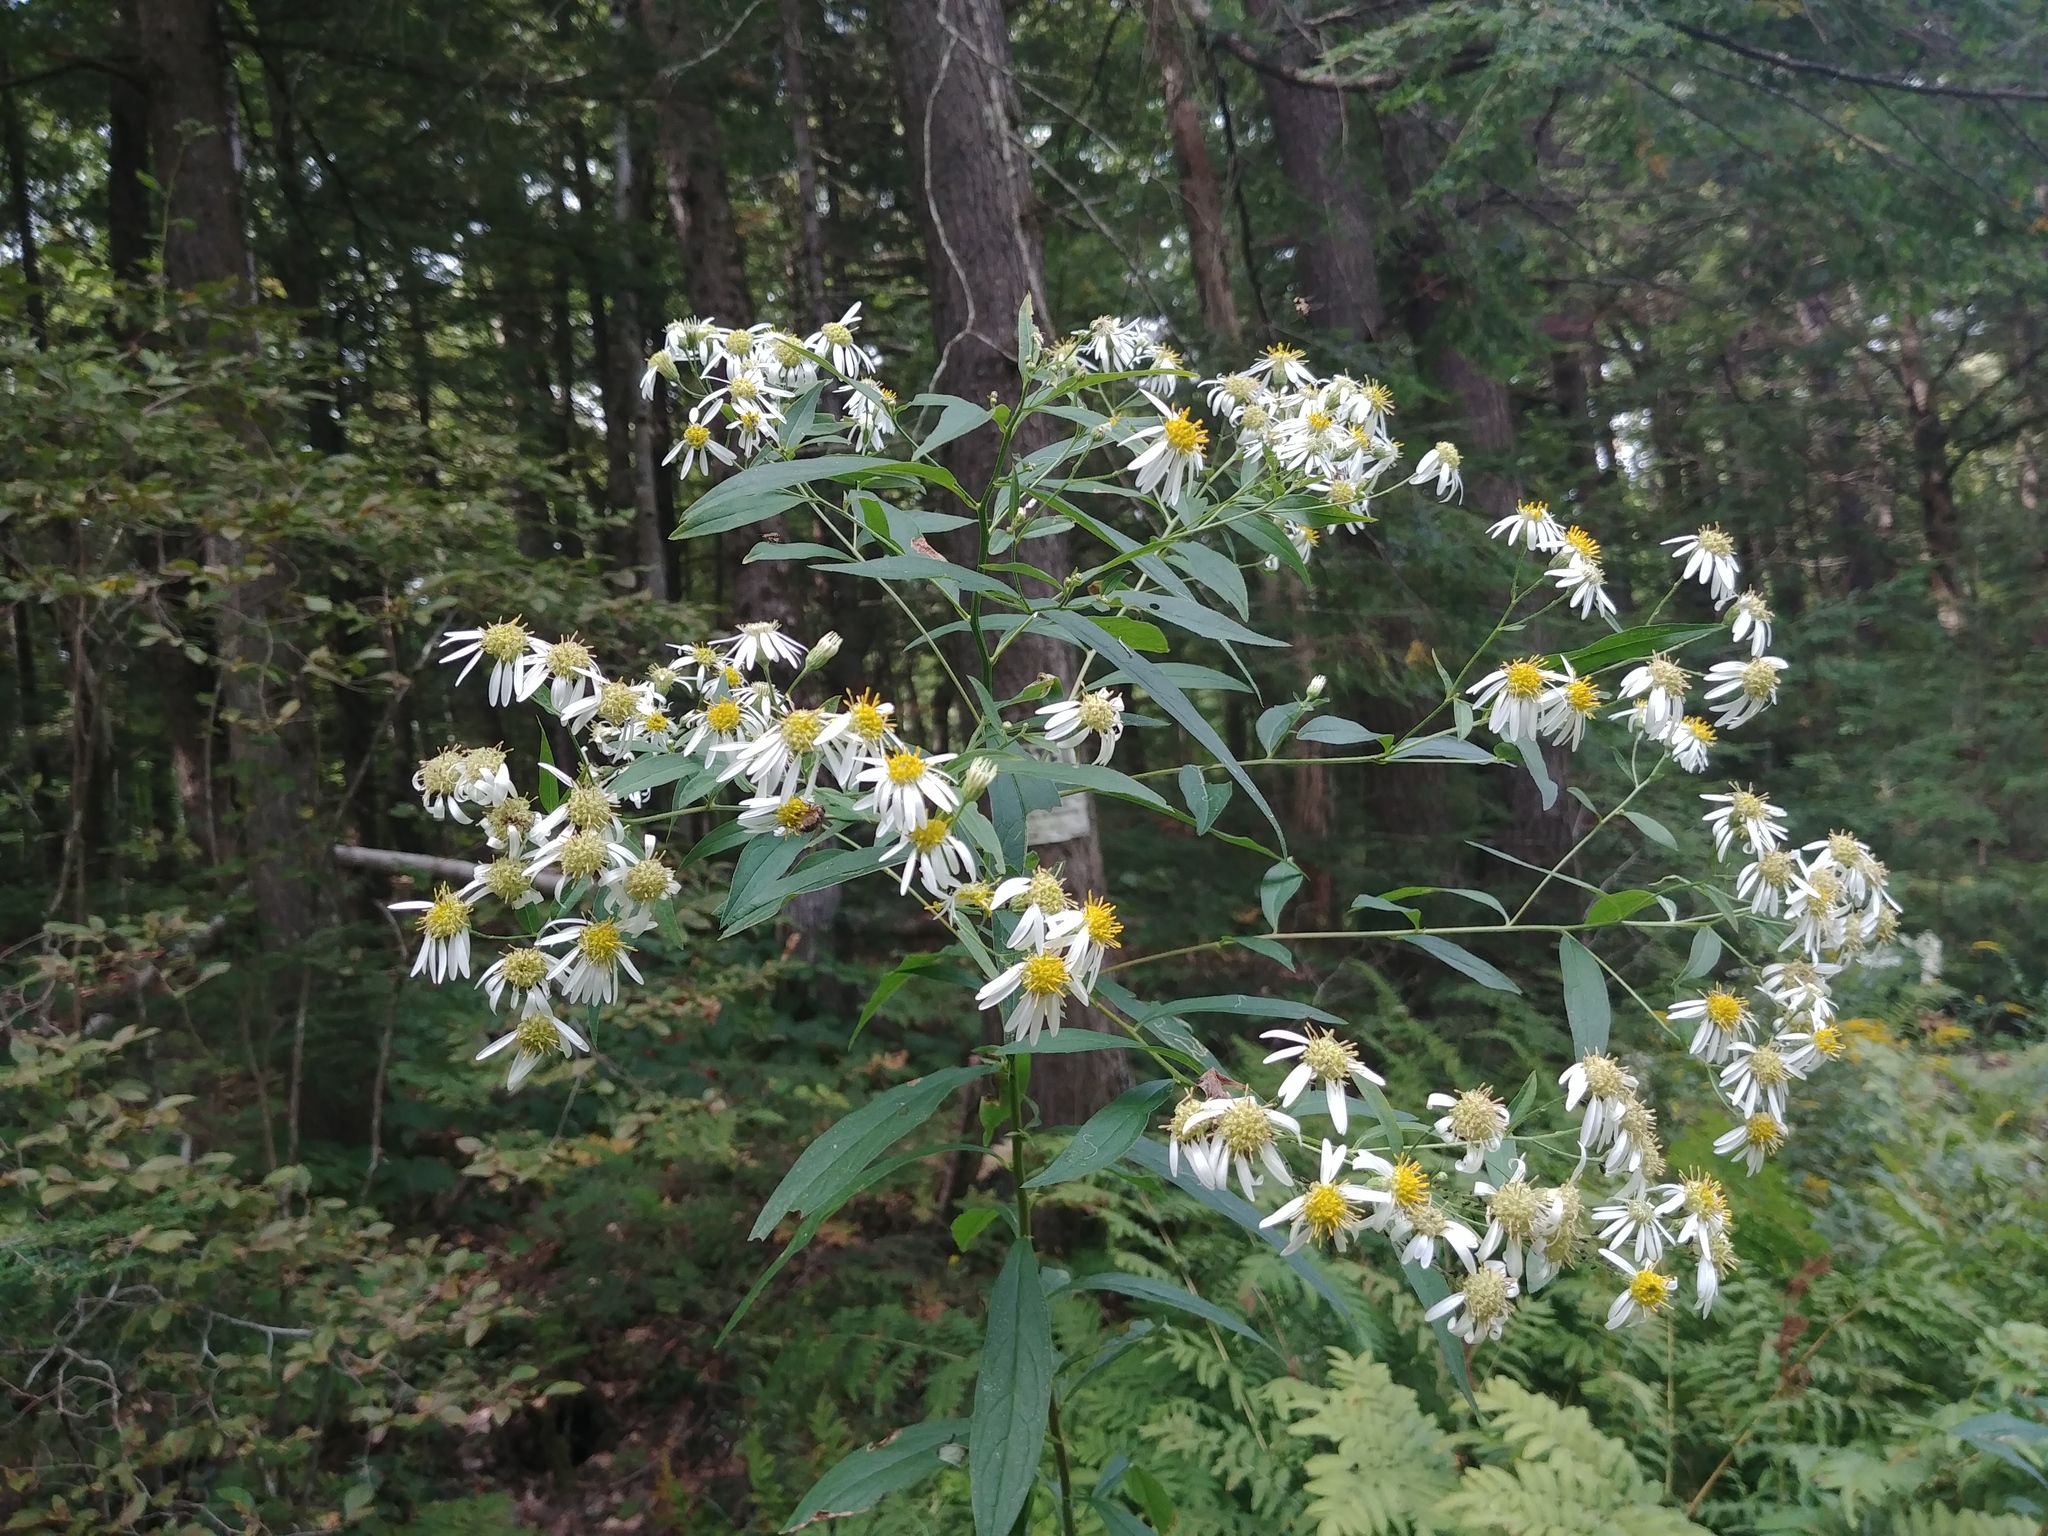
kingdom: Plantae
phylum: Tracheophyta
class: Magnoliopsida
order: Asterales
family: Asteraceae
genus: Doellingeria
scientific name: Doellingeria umbellata
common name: Flat-top white aster
